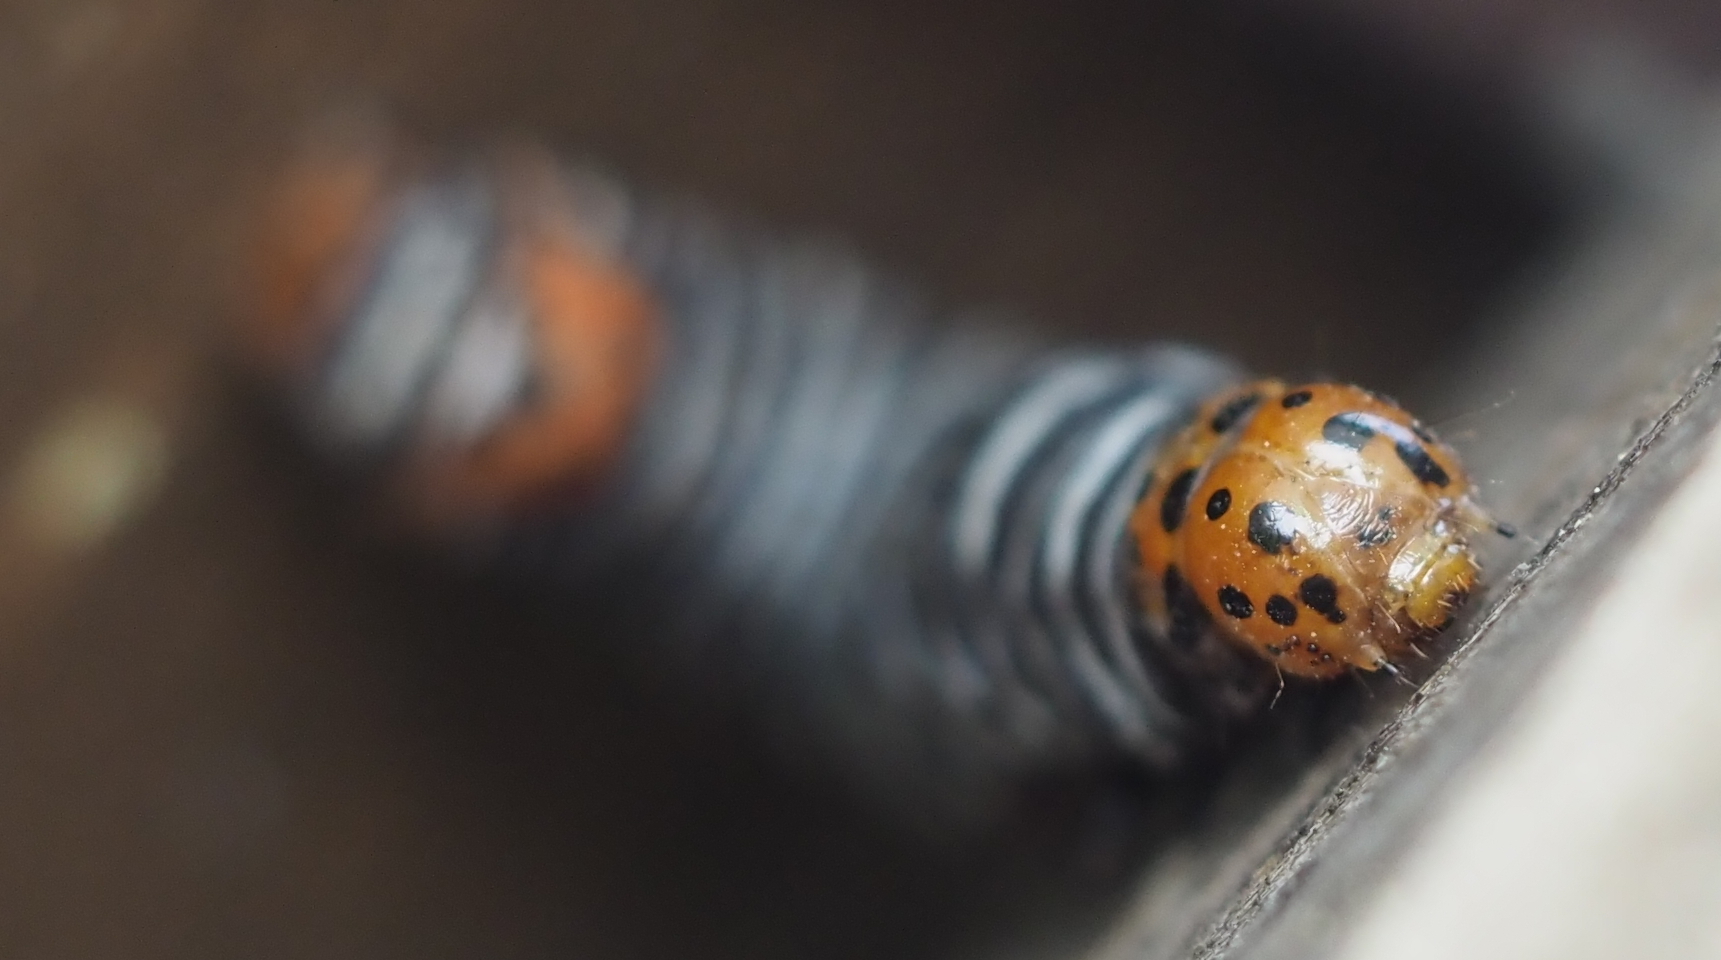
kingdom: Animalia
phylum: Arthropoda
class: Insecta
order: Lepidoptera
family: Noctuidae
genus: Psychomorpha
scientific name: Psychomorpha epimenis
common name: Grapevine epimenis moth
